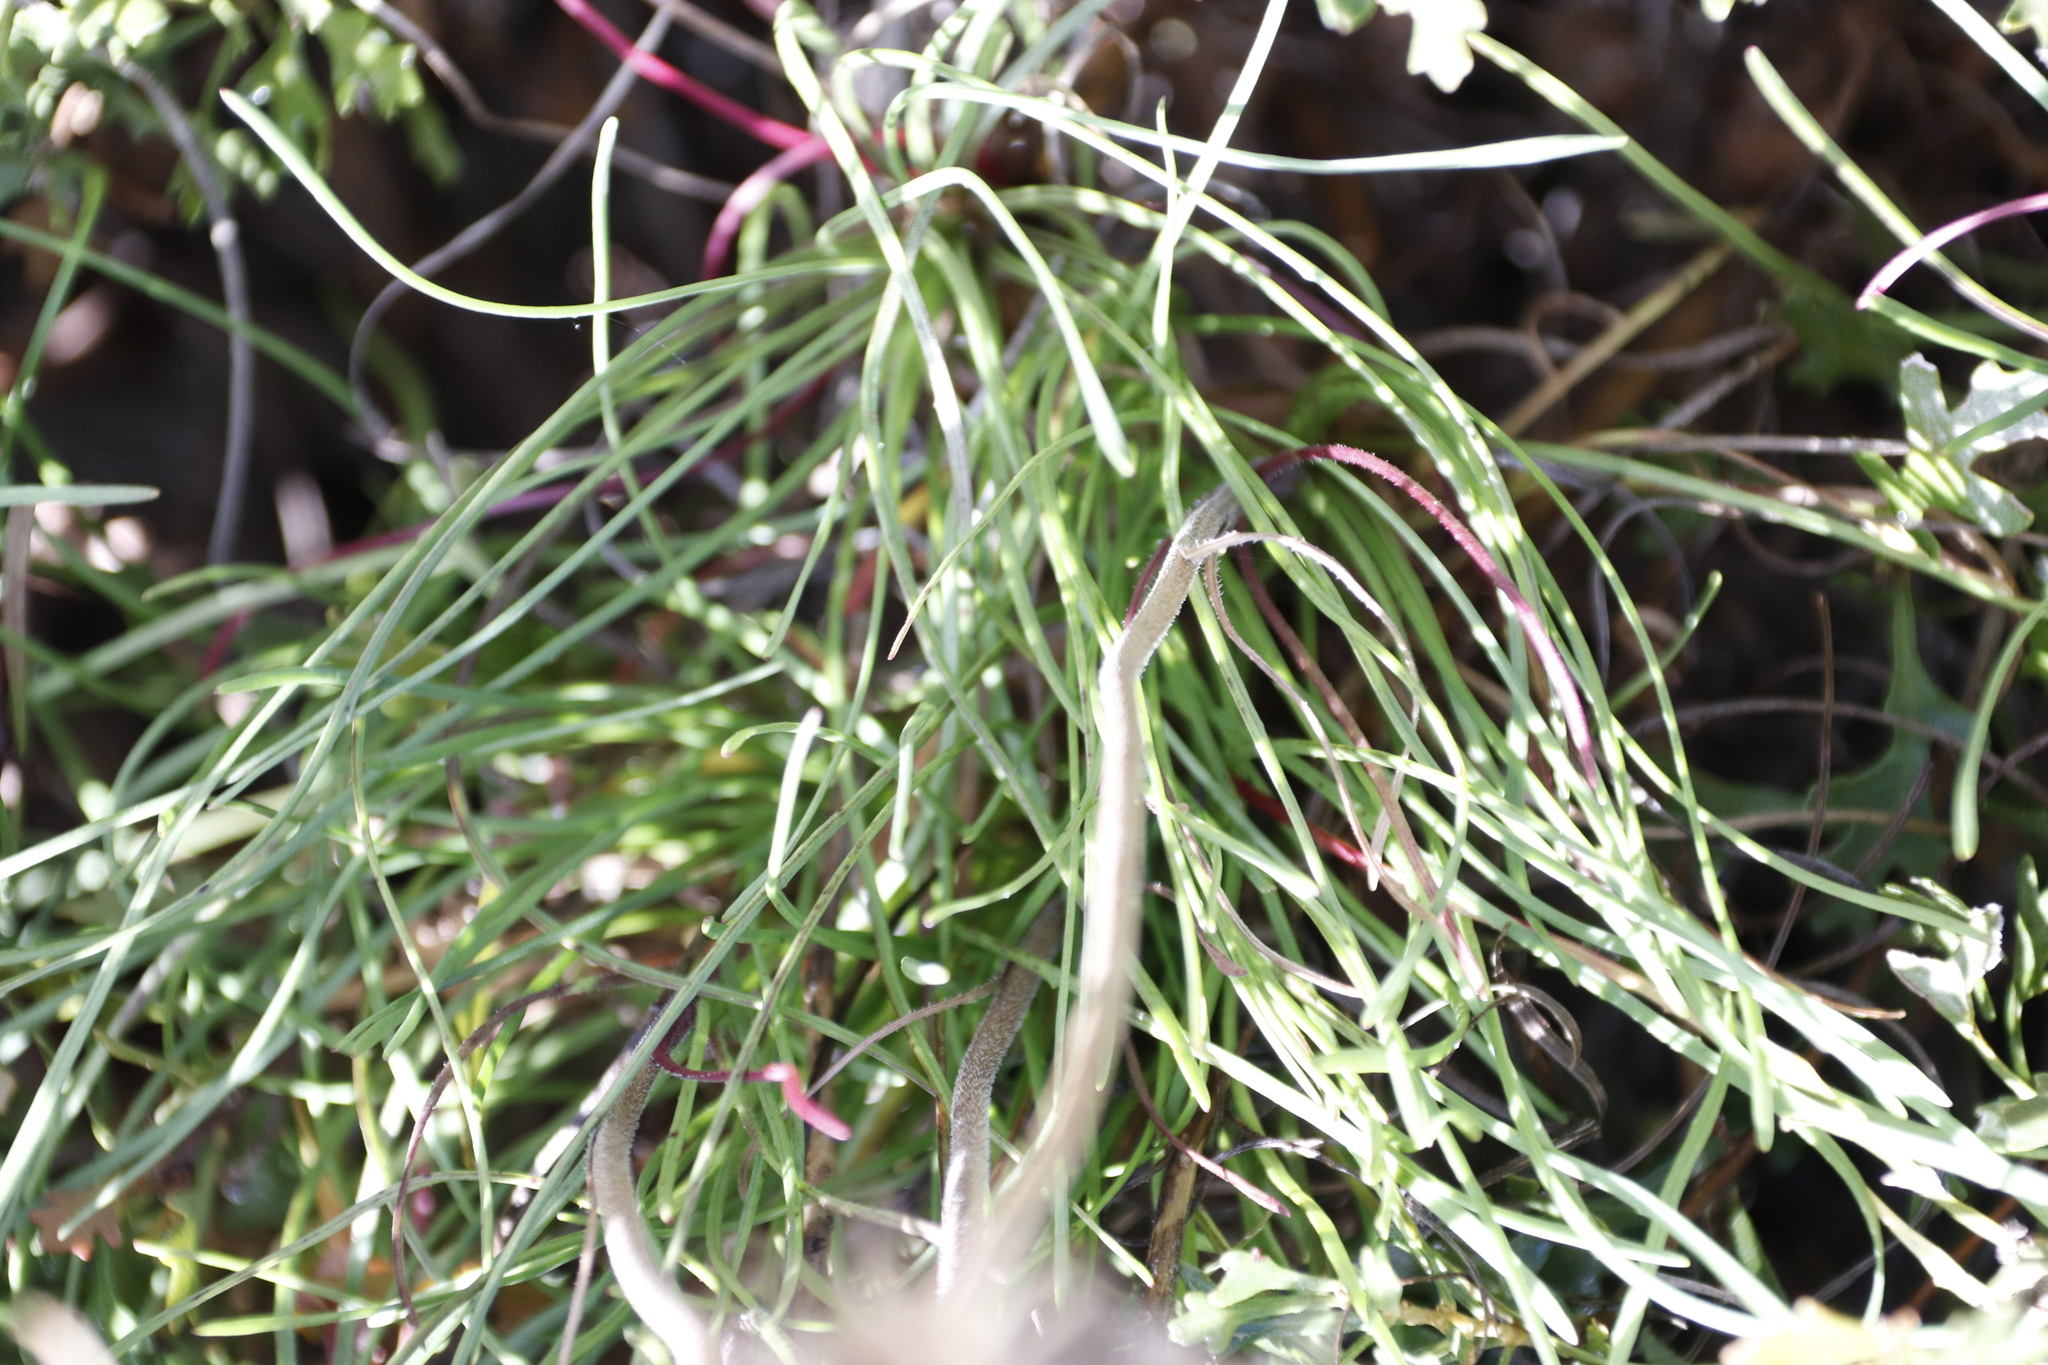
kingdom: Plantae
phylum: Tracheophyta
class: Magnoliopsida
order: Asterales
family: Asteraceae
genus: Dimorphotheca
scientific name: Dimorphotheca nudicaulis
